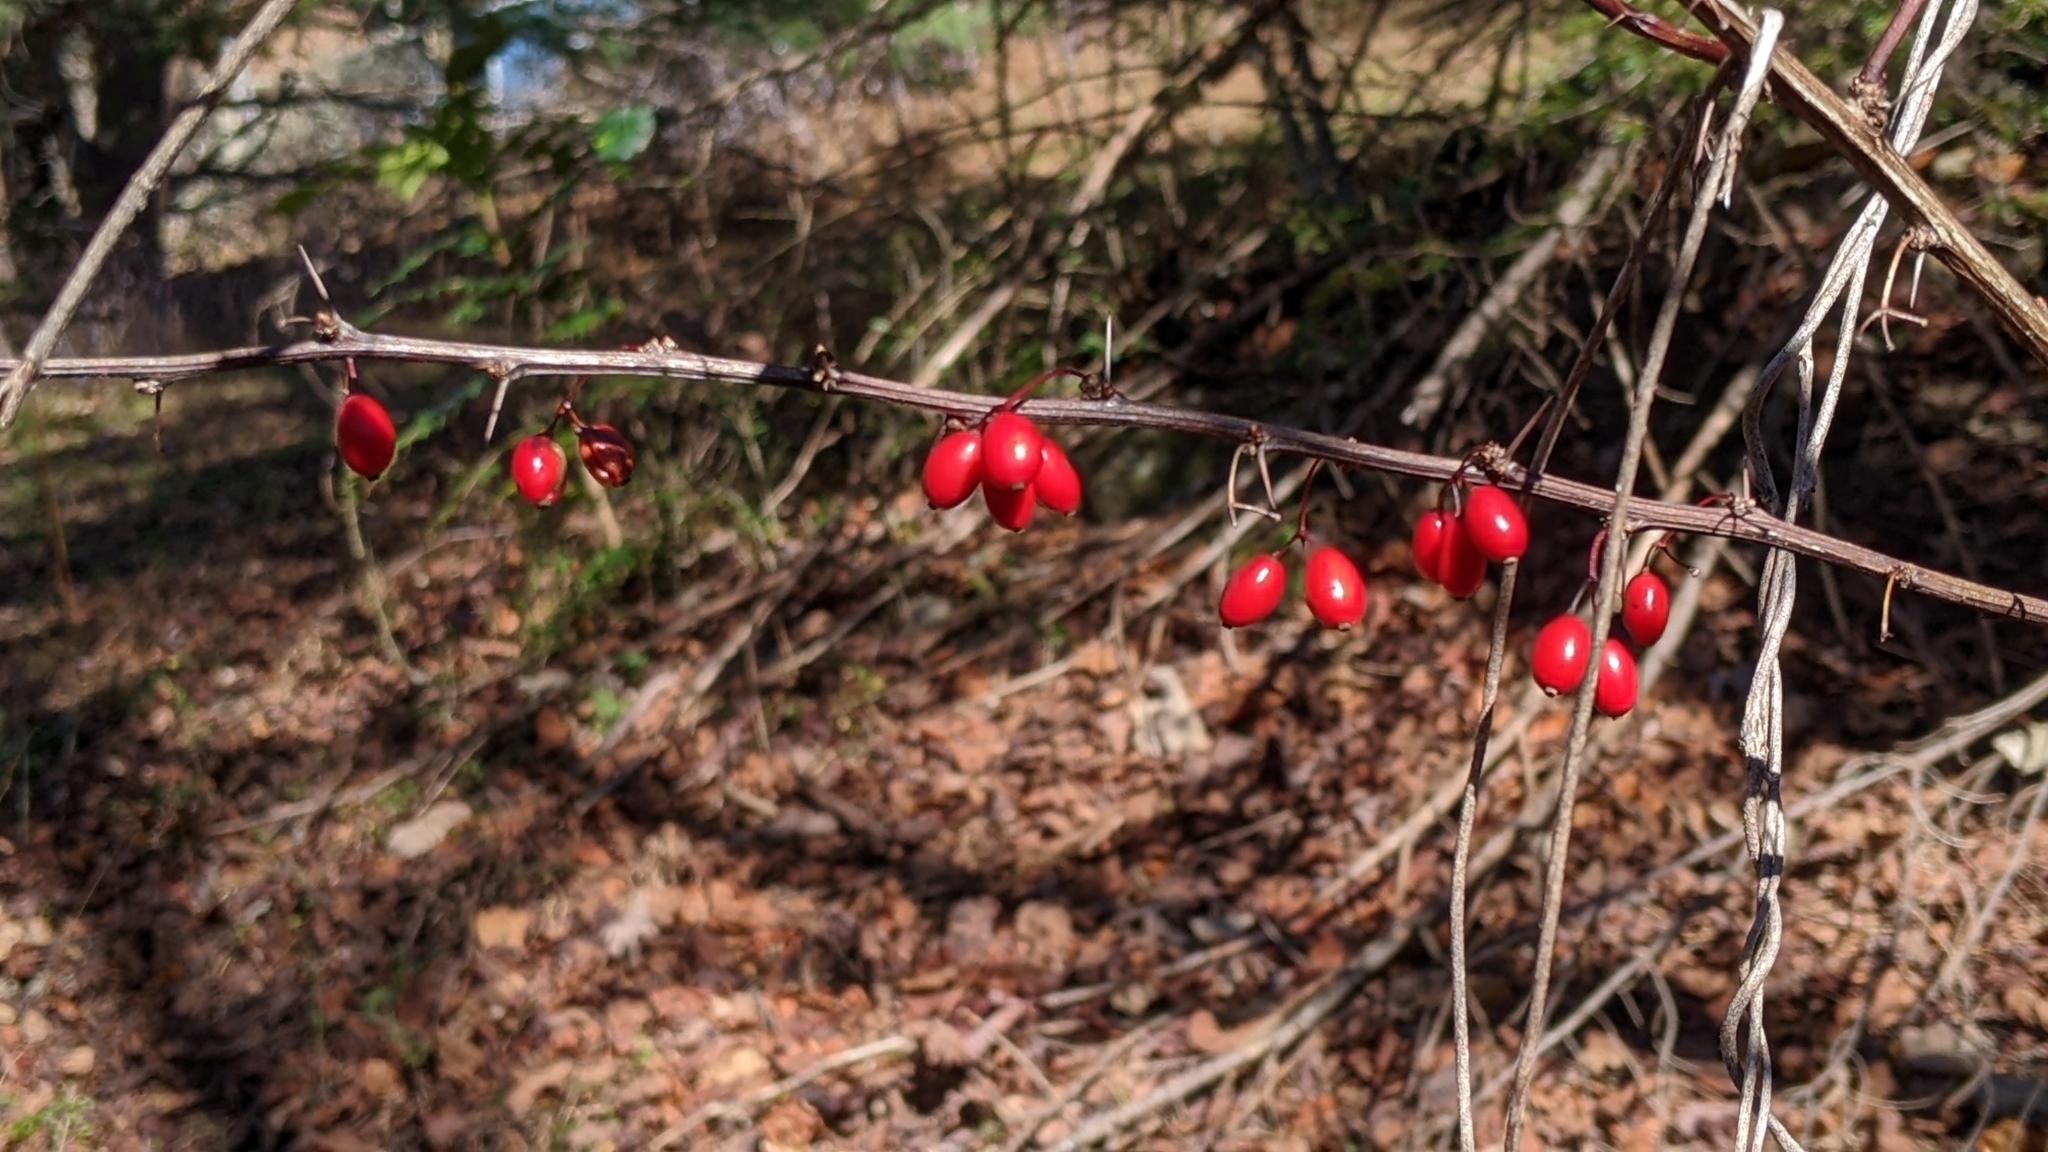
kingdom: Plantae
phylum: Tracheophyta
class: Magnoliopsida
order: Ranunculales
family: Berberidaceae
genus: Berberis
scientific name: Berberis thunbergii
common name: Japanese barberry
